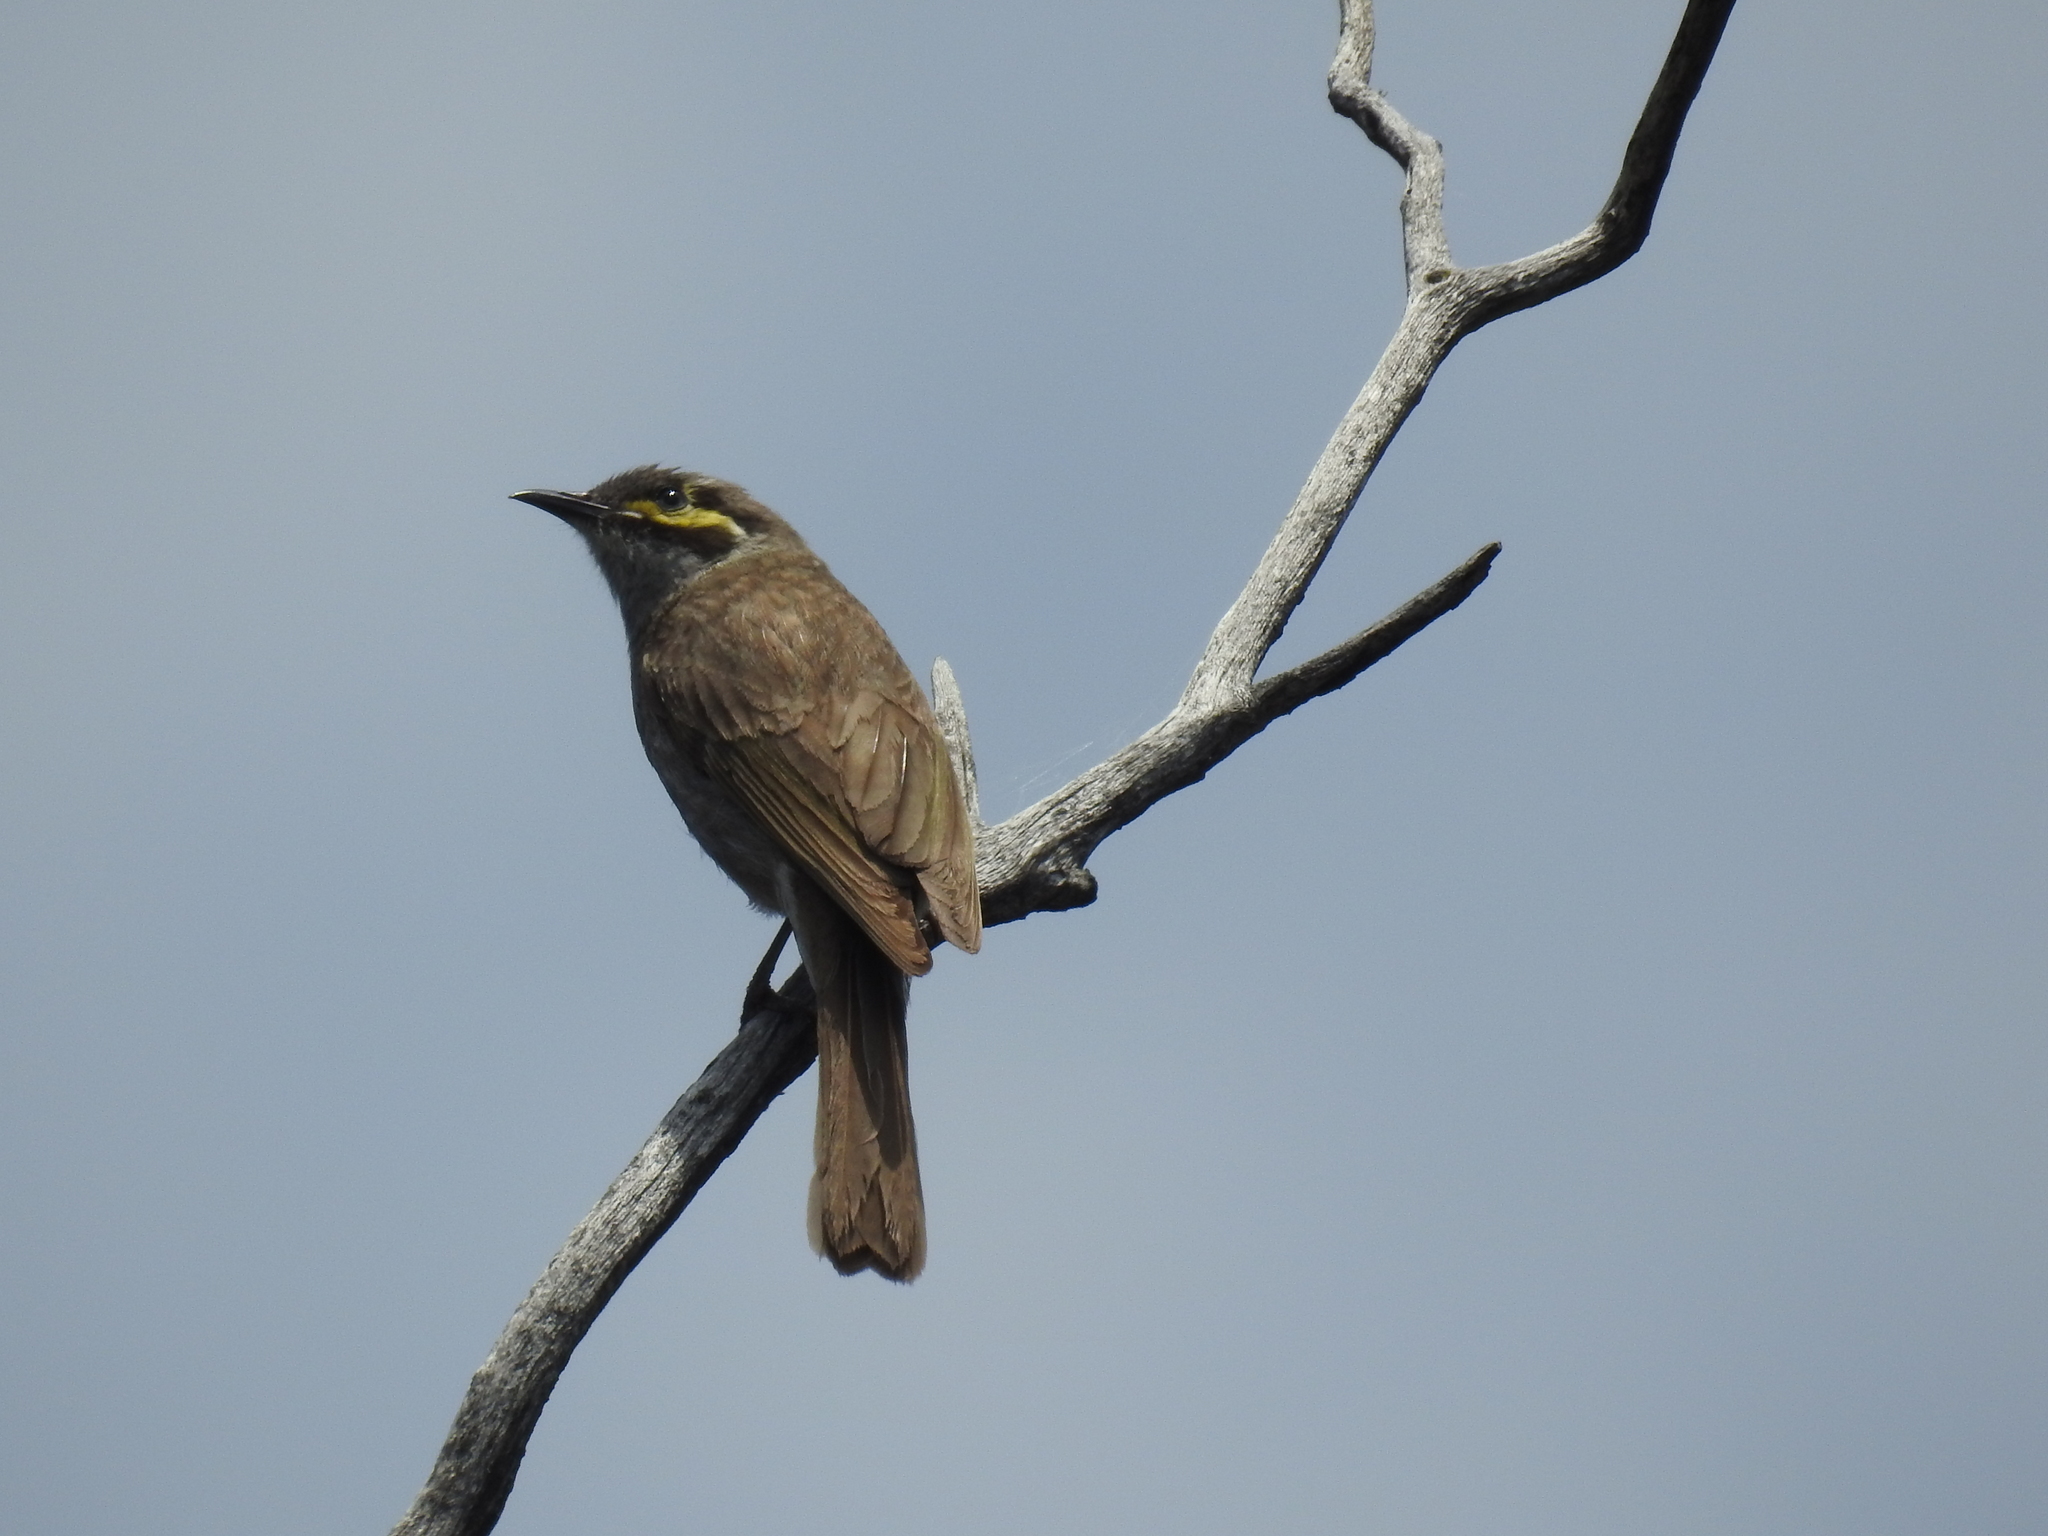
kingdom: Animalia
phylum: Chordata
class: Aves
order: Passeriformes
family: Meliphagidae
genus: Caligavis
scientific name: Caligavis chrysops
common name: Yellow-faced honeyeater
